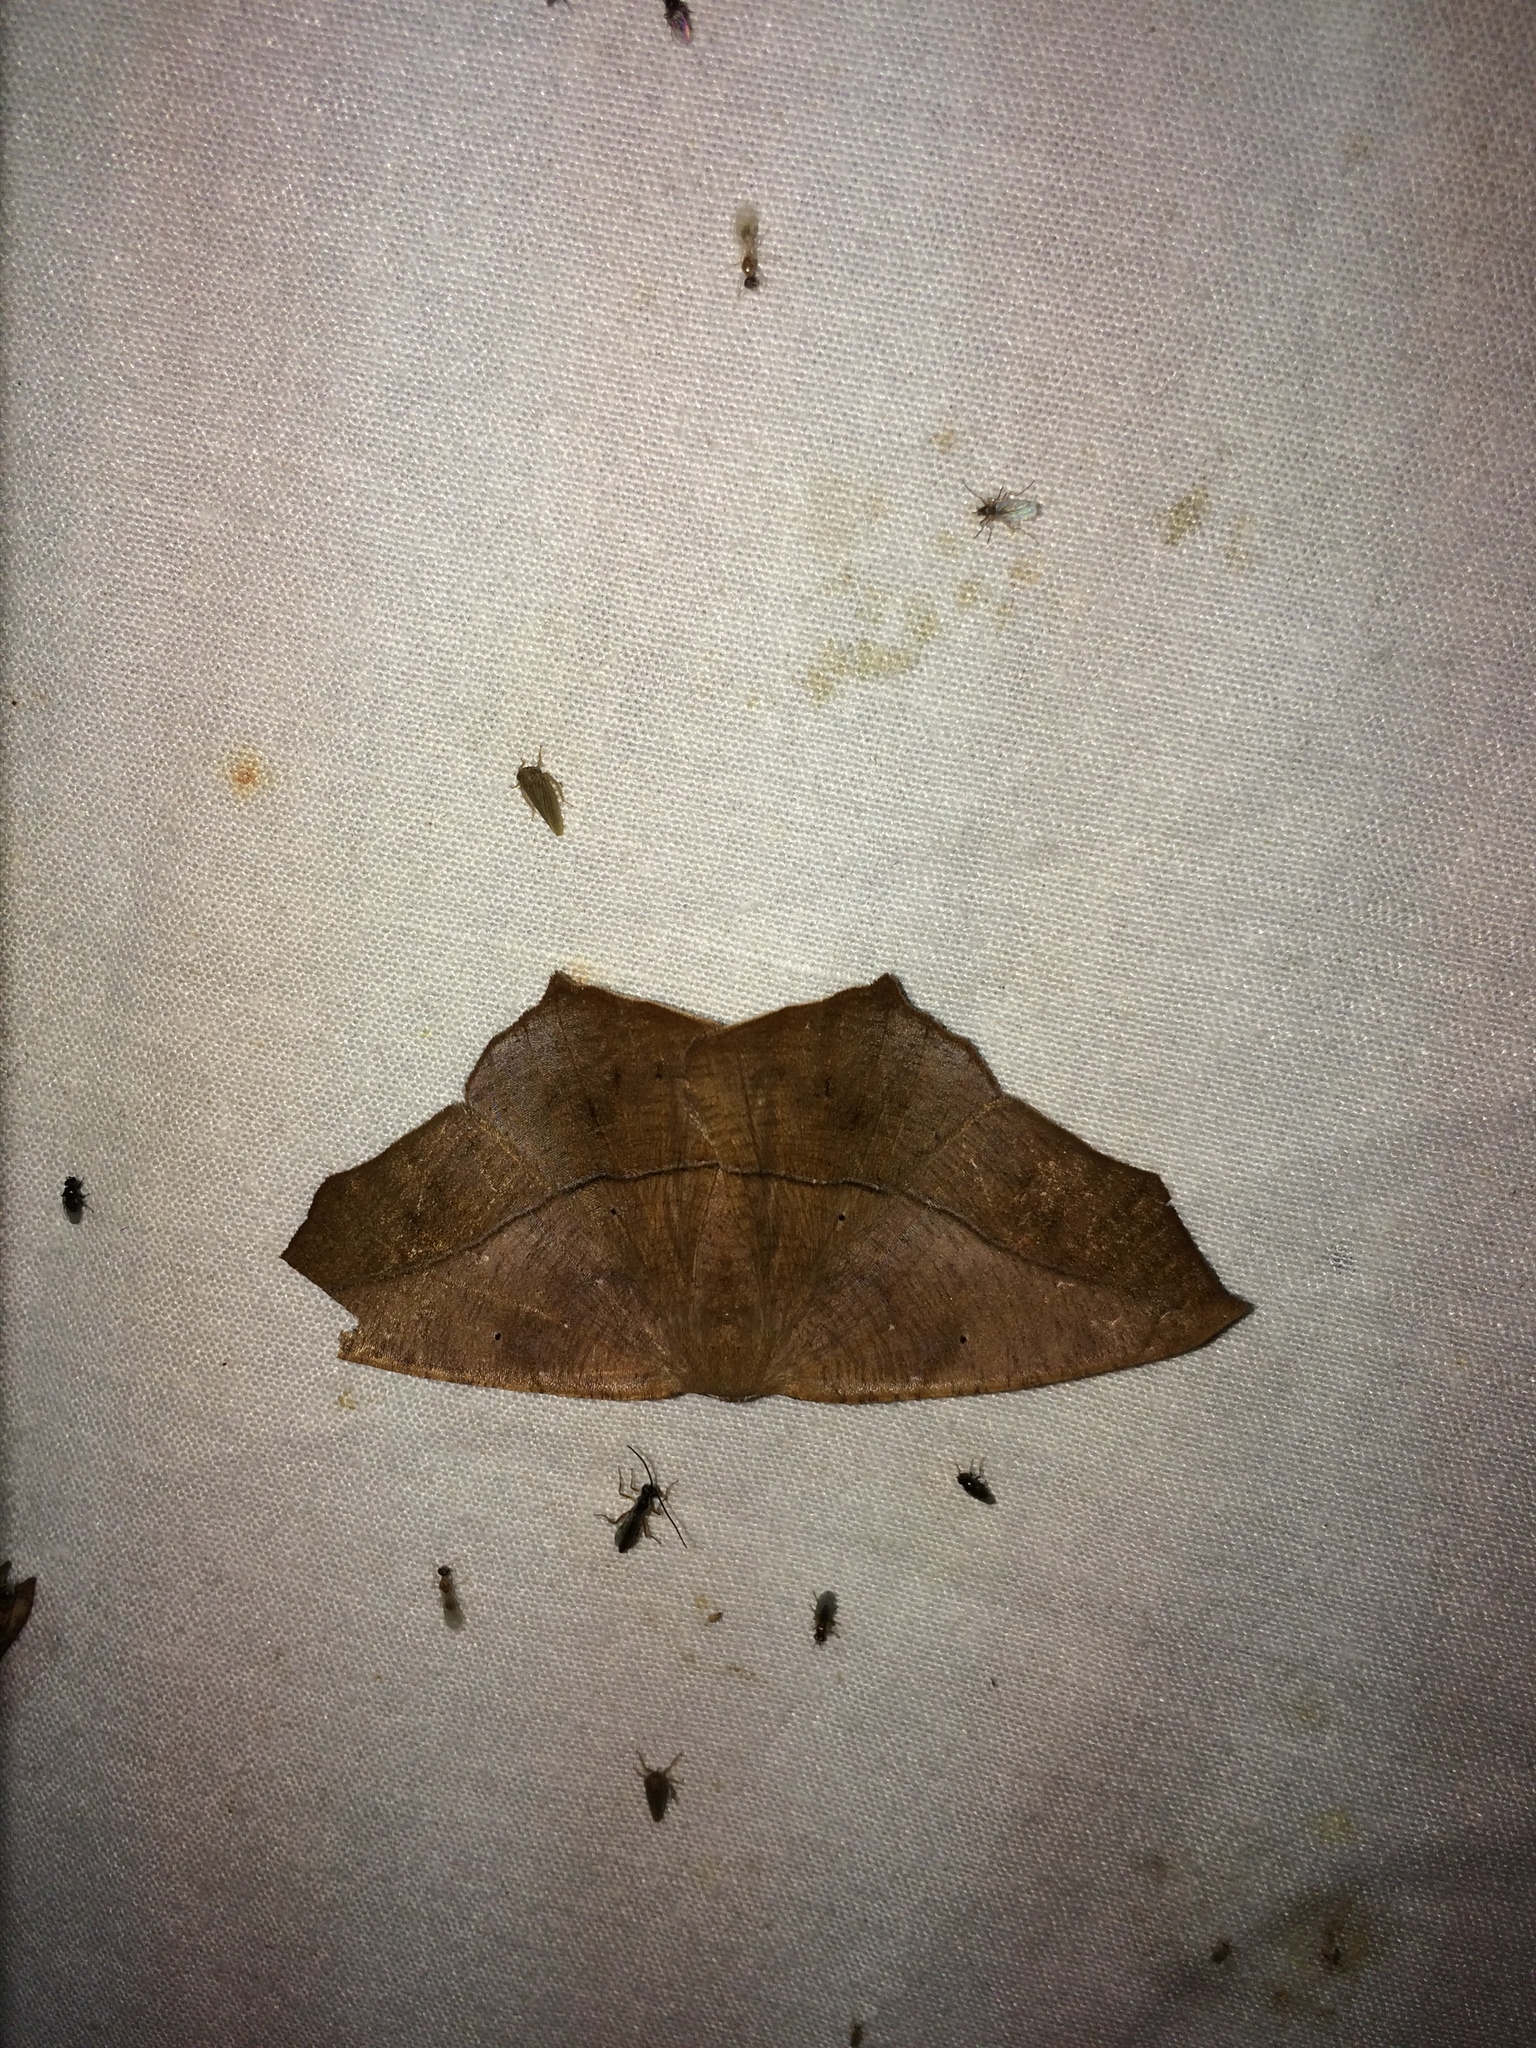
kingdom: Animalia
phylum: Arthropoda
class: Insecta
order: Lepidoptera
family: Geometridae
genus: Prochoerodes
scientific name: Prochoerodes lineola
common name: Large maple spanworm
